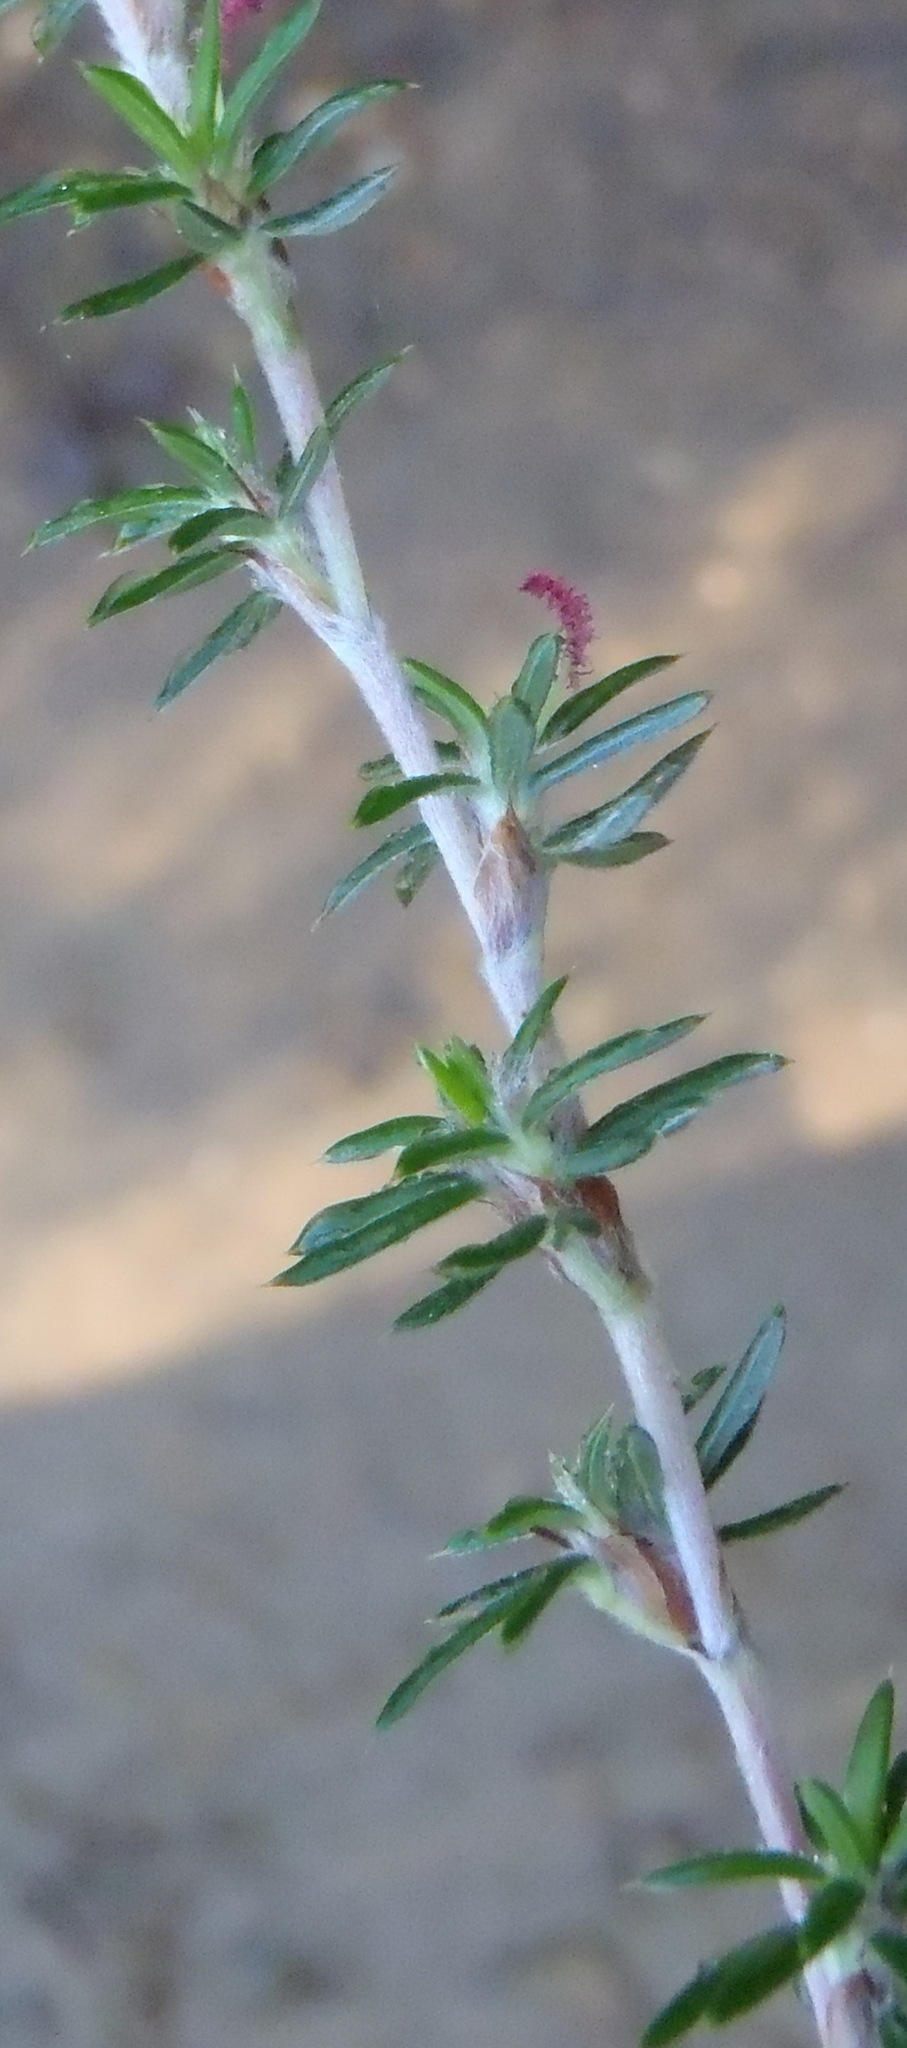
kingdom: Plantae
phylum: Tracheophyta
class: Magnoliopsida
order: Rosales
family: Rosaceae
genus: Cliffortia
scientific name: Cliffortia stricta
